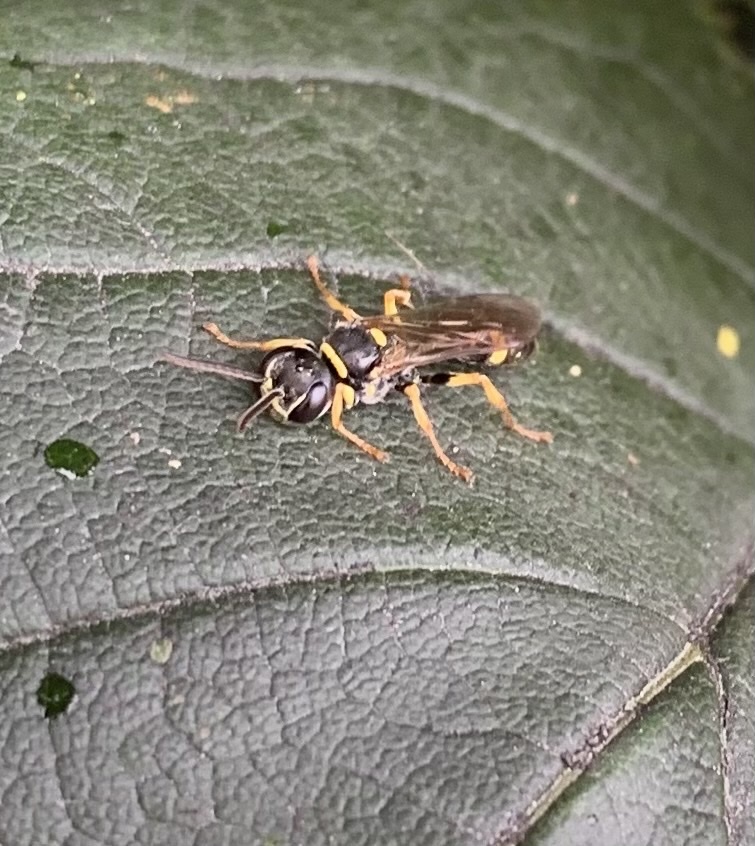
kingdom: Animalia
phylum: Arthropoda
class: Insecta
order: Hymenoptera
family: Crabronidae
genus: Mellinus
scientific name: Mellinus arvensis
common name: Field digger wasp
